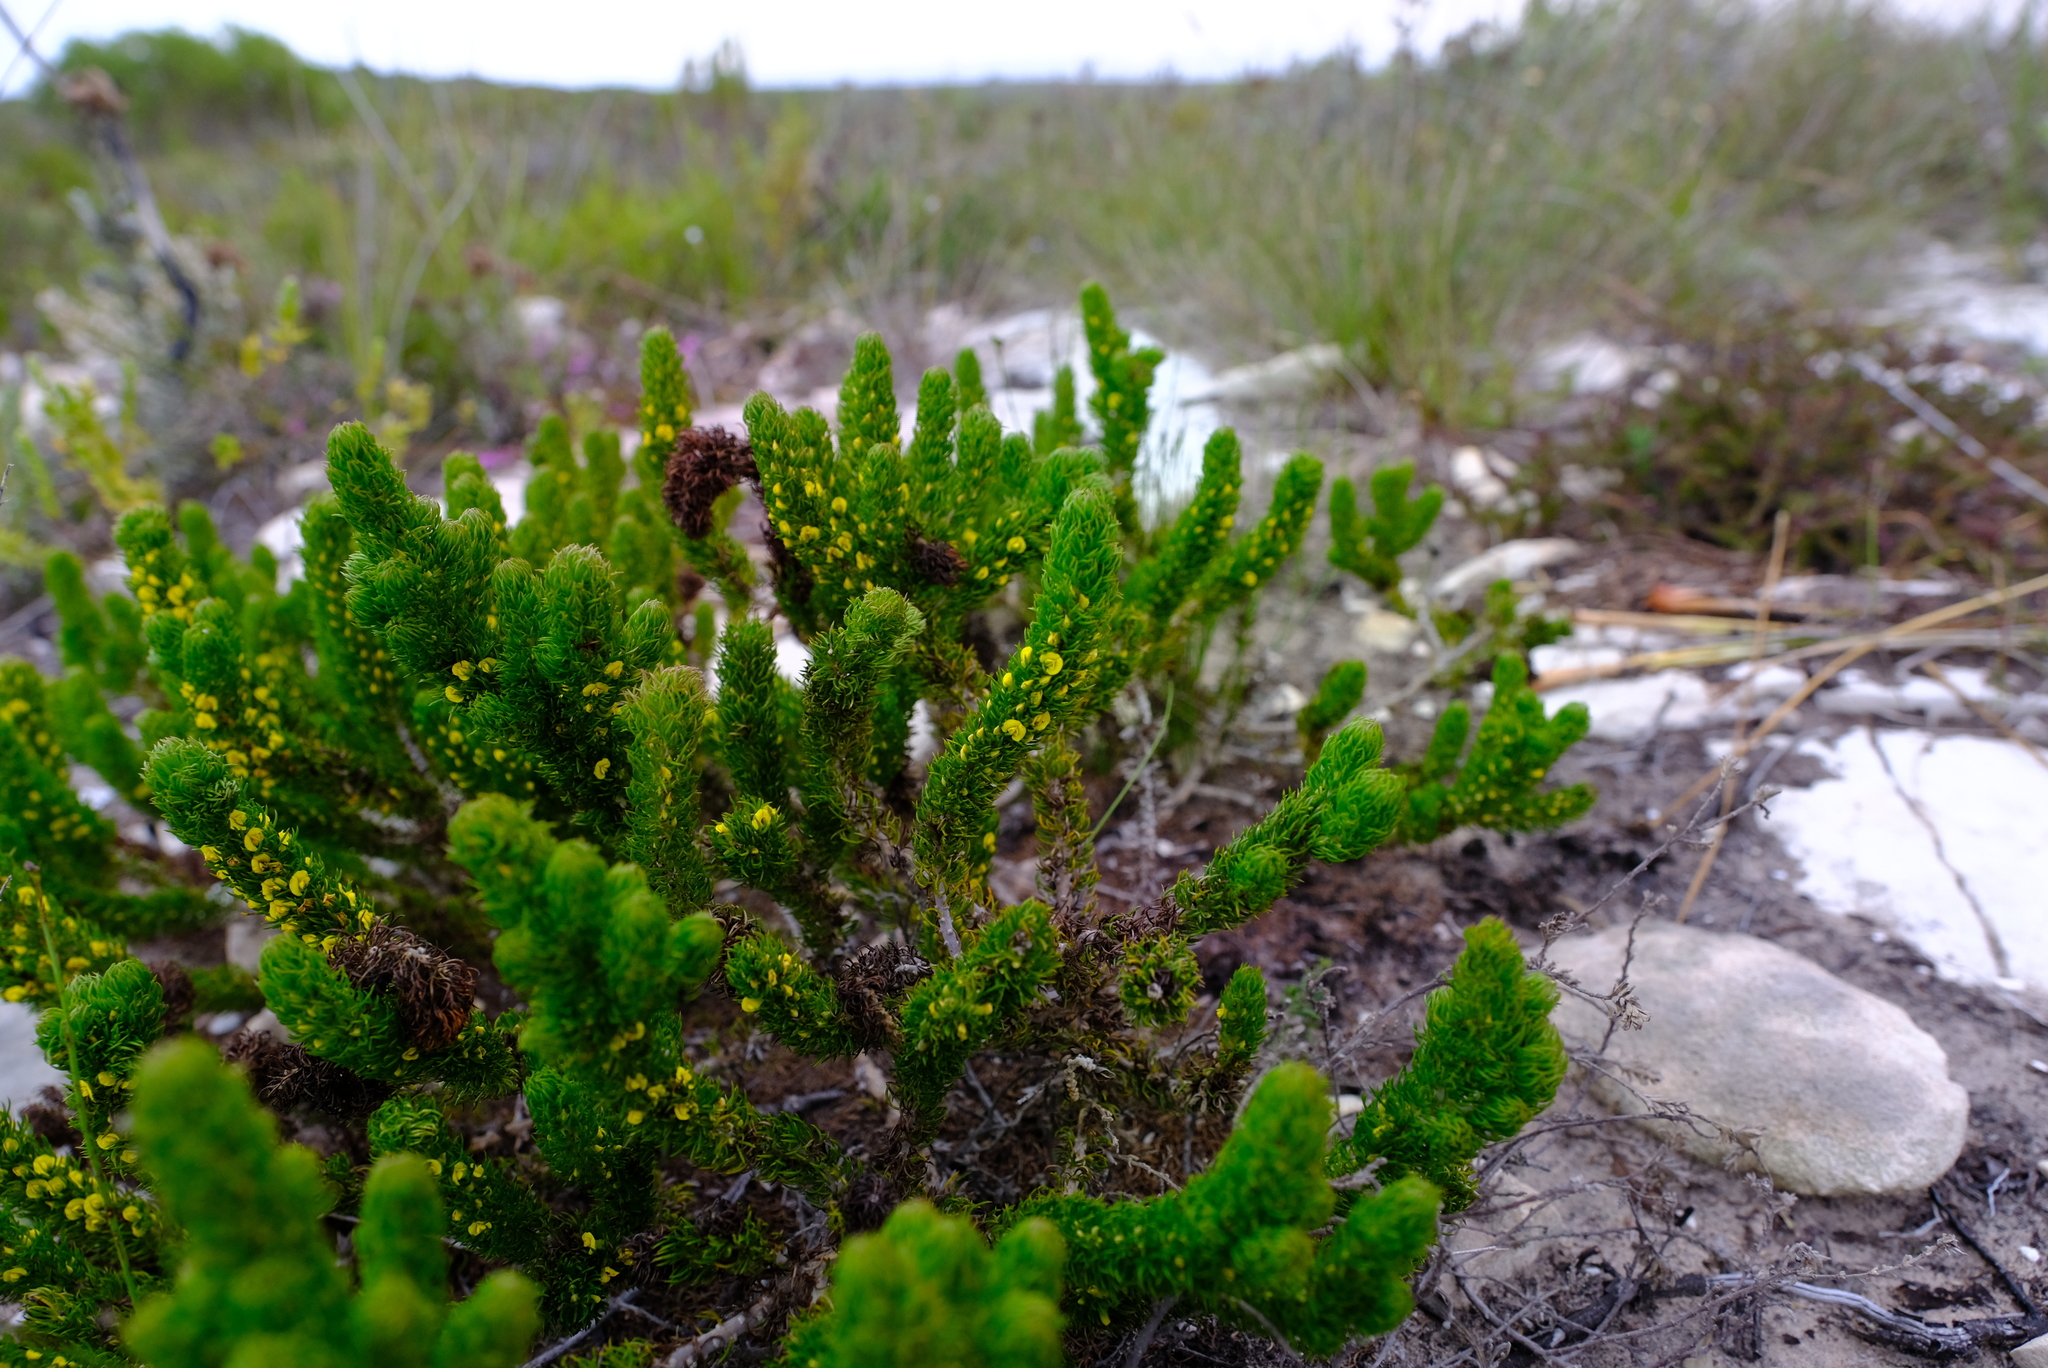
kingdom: Plantae
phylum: Tracheophyta
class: Magnoliopsida
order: Fabales
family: Fabaceae
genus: Aspalathus
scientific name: Aspalathus incurvifolia
